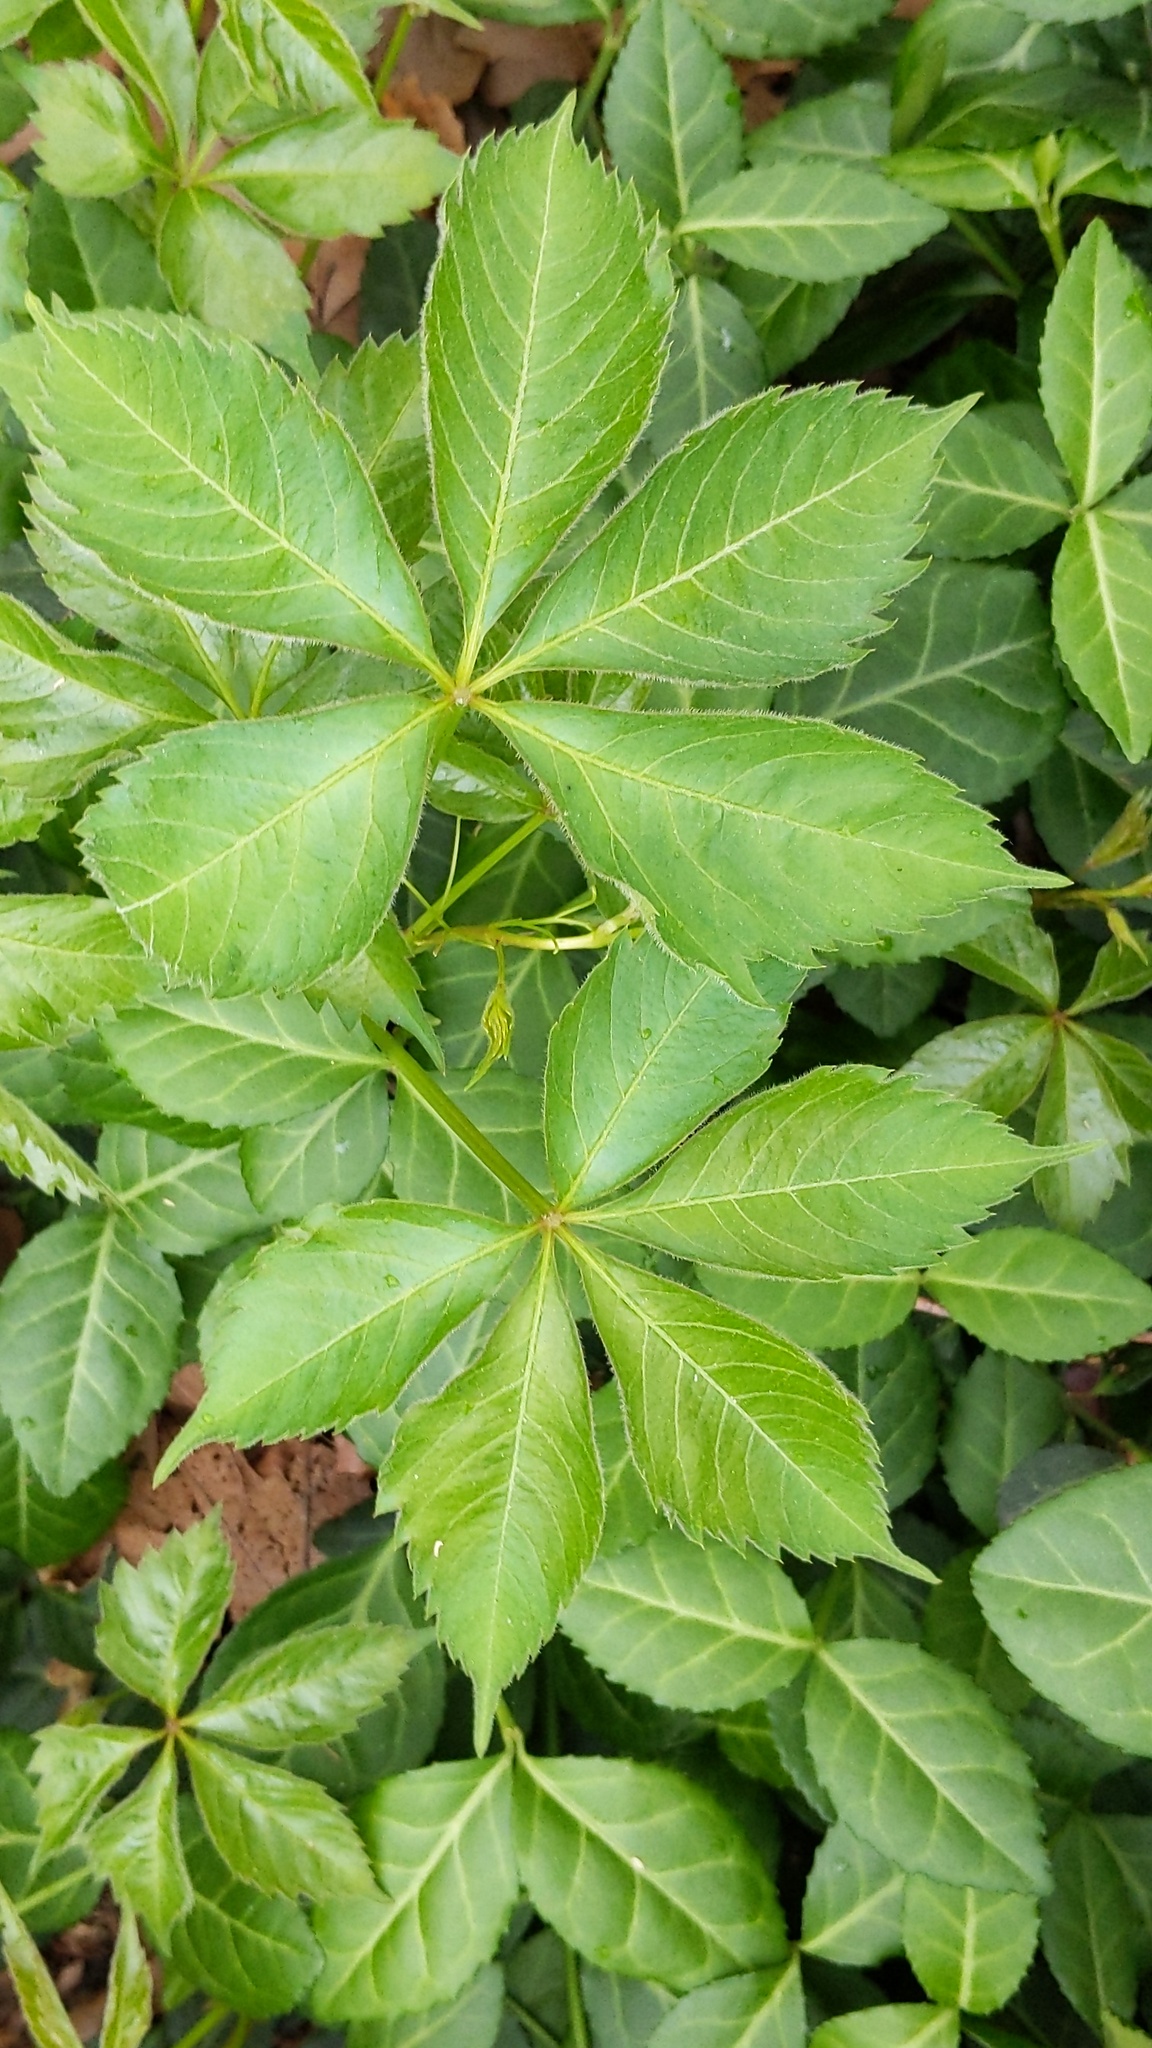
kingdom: Plantae
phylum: Tracheophyta
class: Magnoliopsida
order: Vitales
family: Vitaceae
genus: Parthenocissus
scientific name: Parthenocissus quinquefolia
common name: Virginia-creeper
